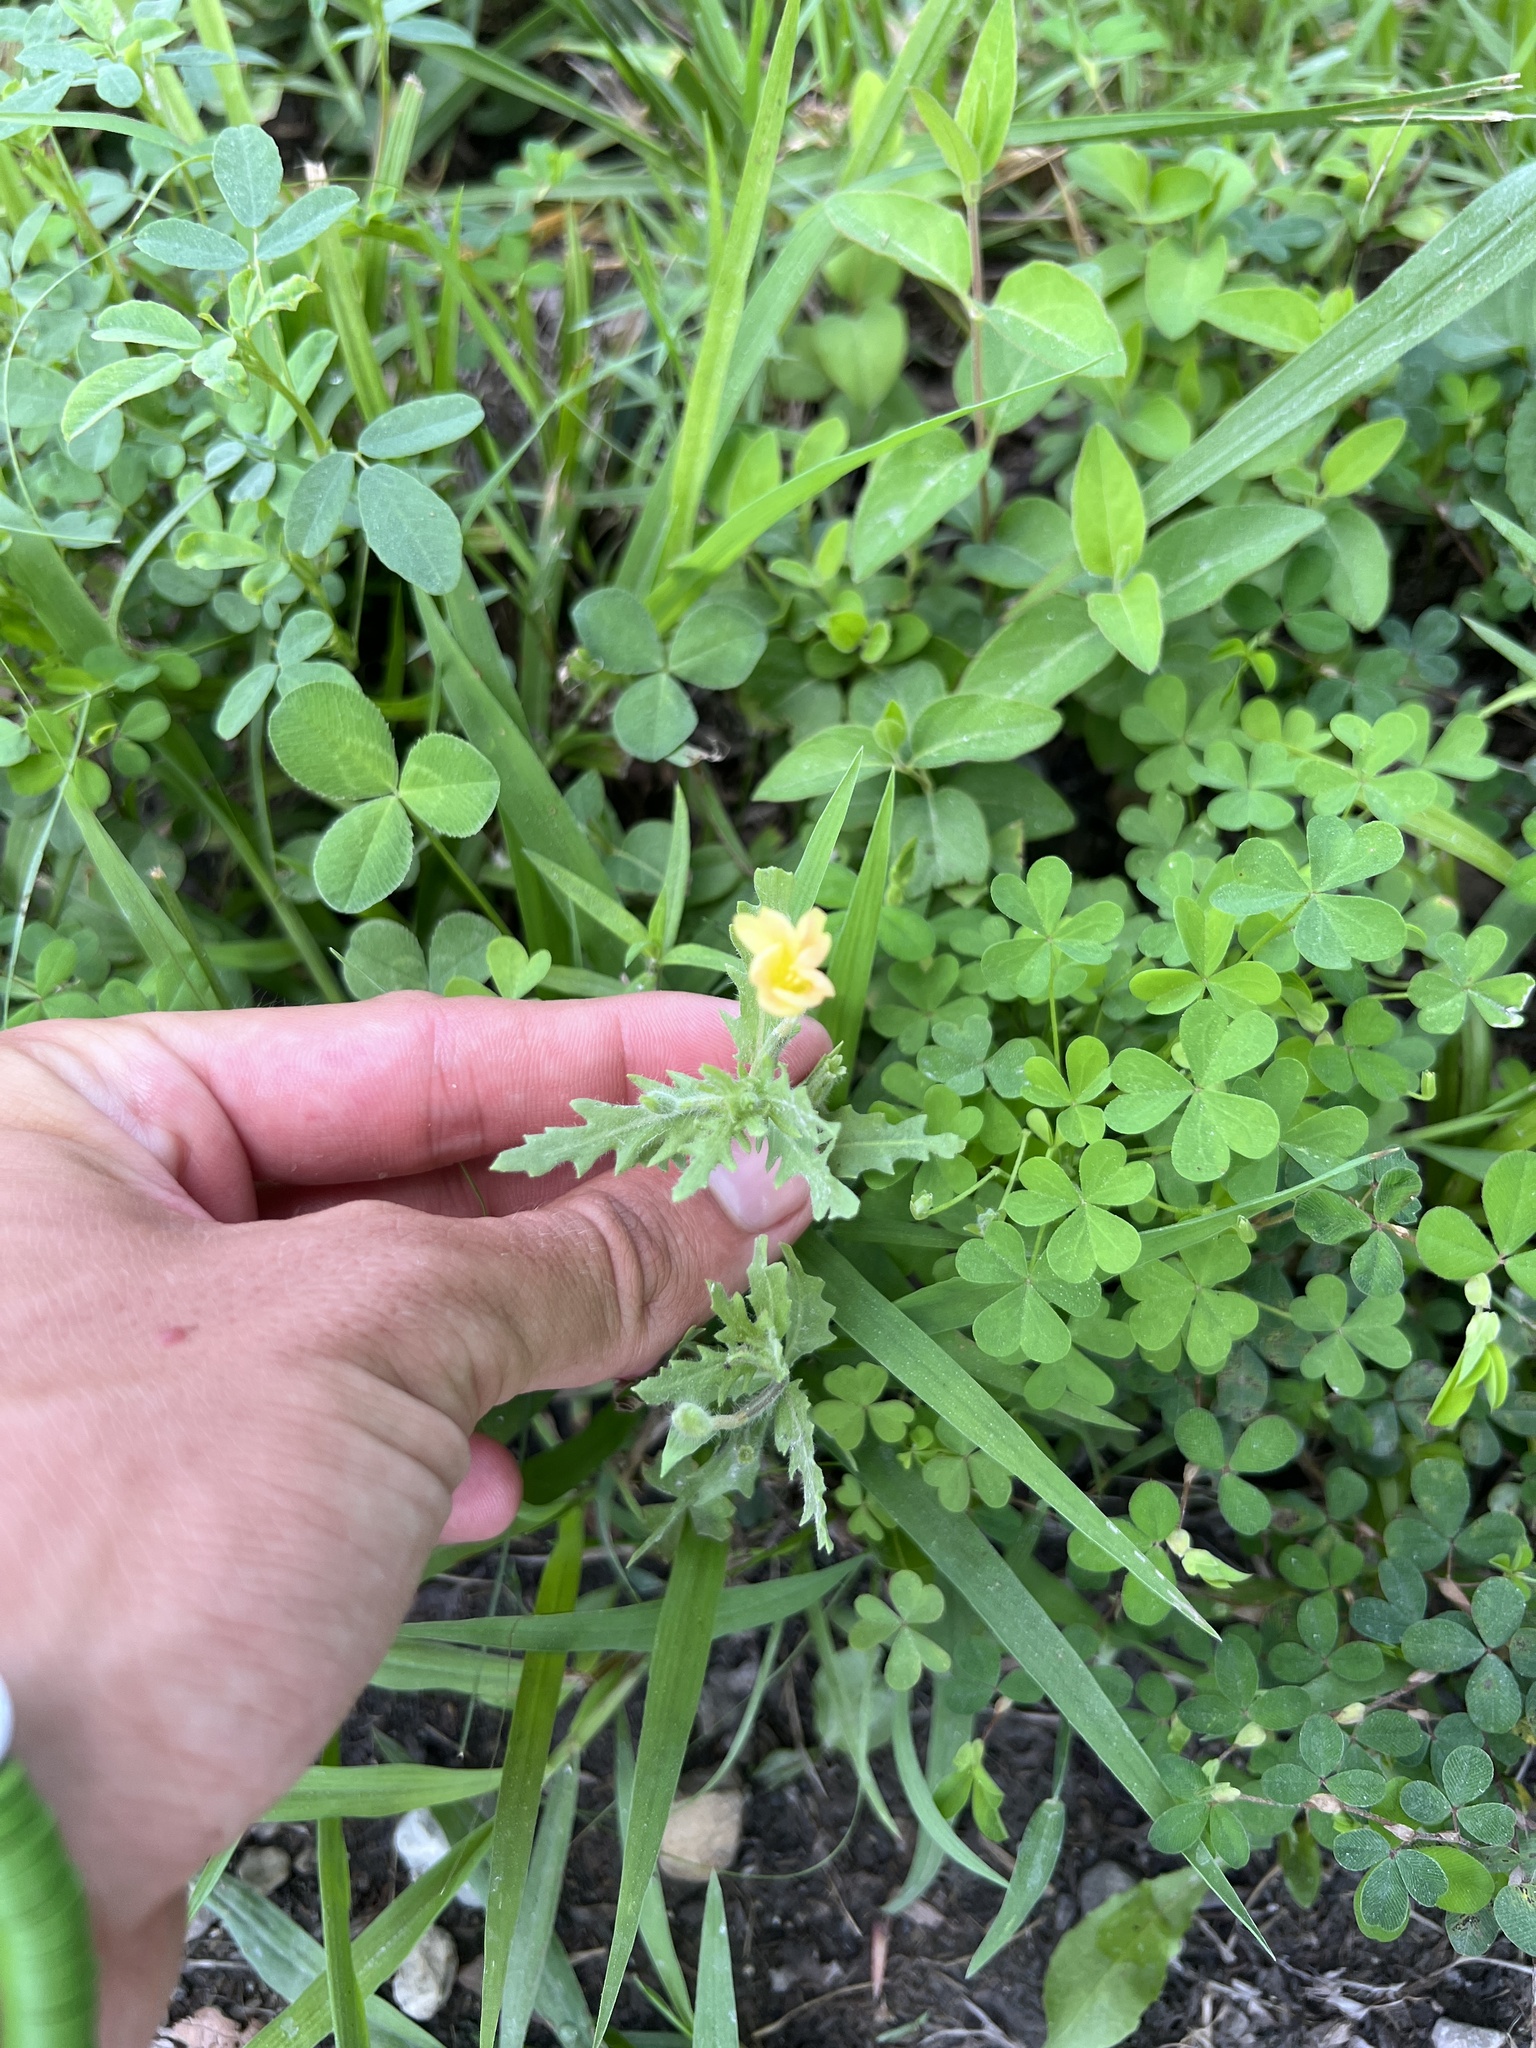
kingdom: Plantae
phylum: Tracheophyta
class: Magnoliopsida
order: Myrtales
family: Onagraceae
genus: Oenothera
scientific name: Oenothera laciniata
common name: Cut-leaved evening-primrose
